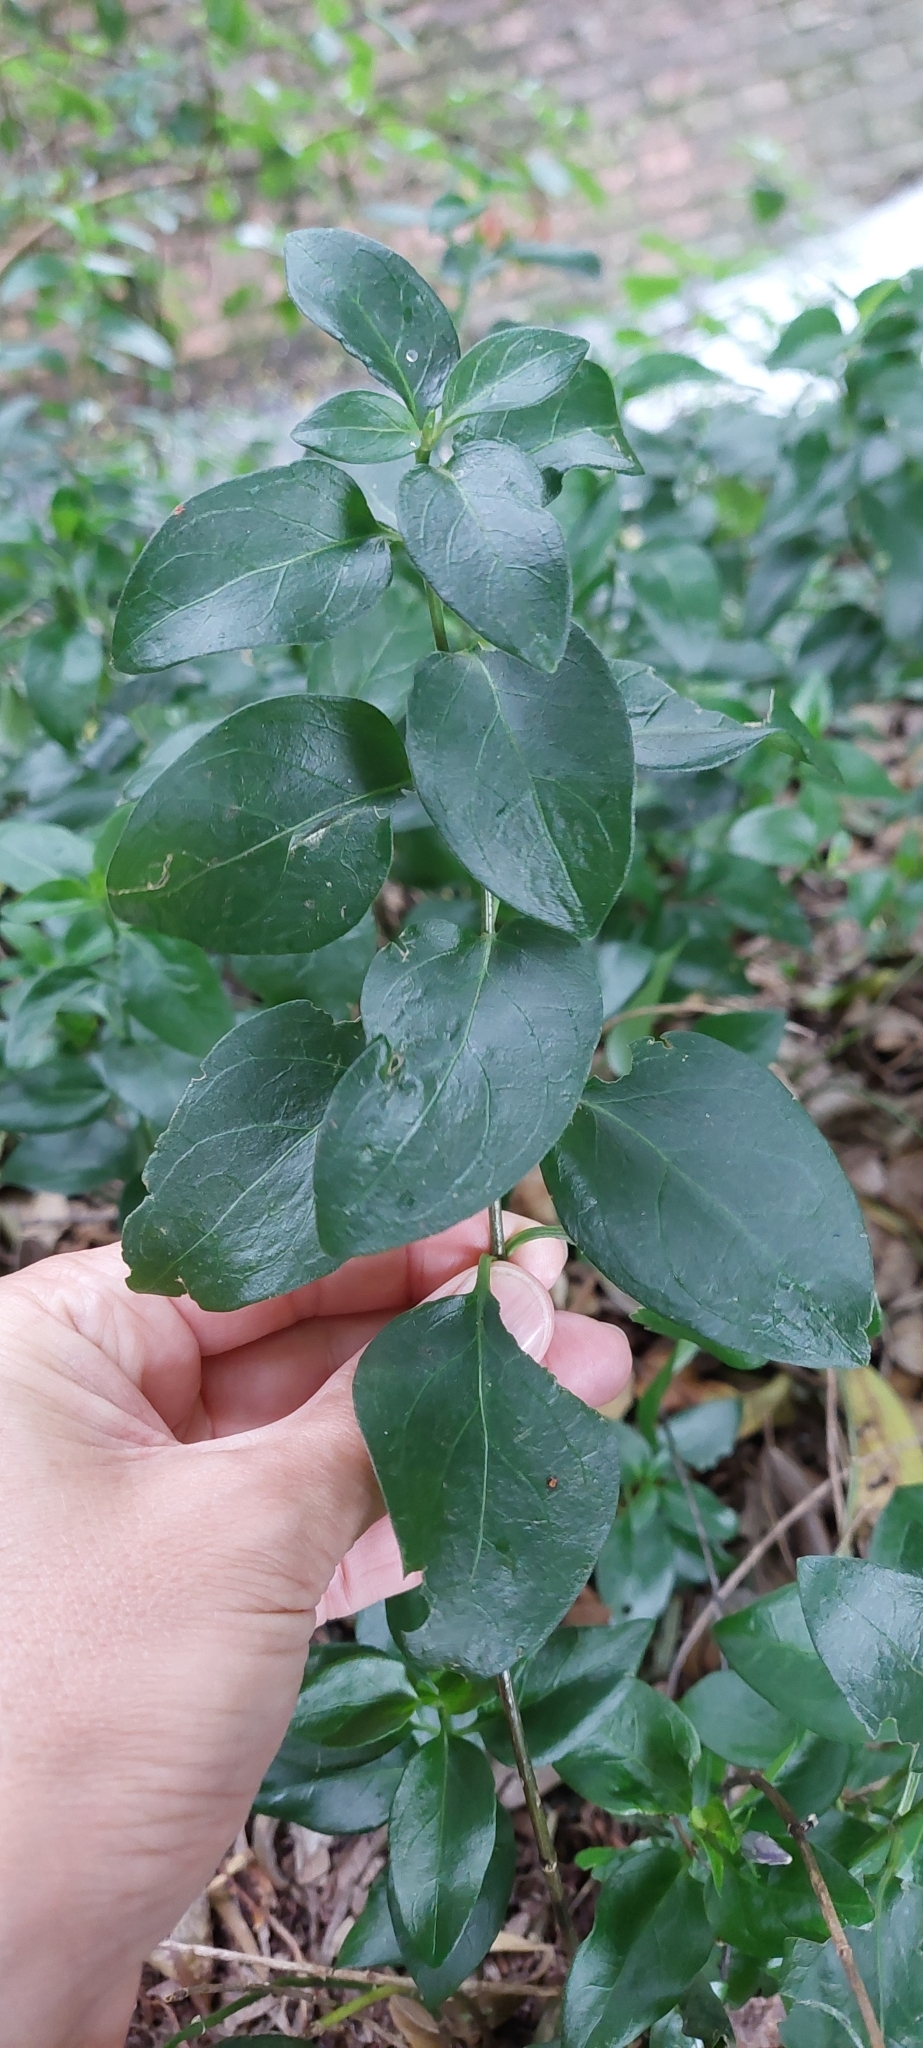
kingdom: Plantae
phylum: Tracheophyta
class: Magnoliopsida
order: Gentianales
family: Apocynaceae
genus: Vinca
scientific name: Vinca major
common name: Greater periwinkle
